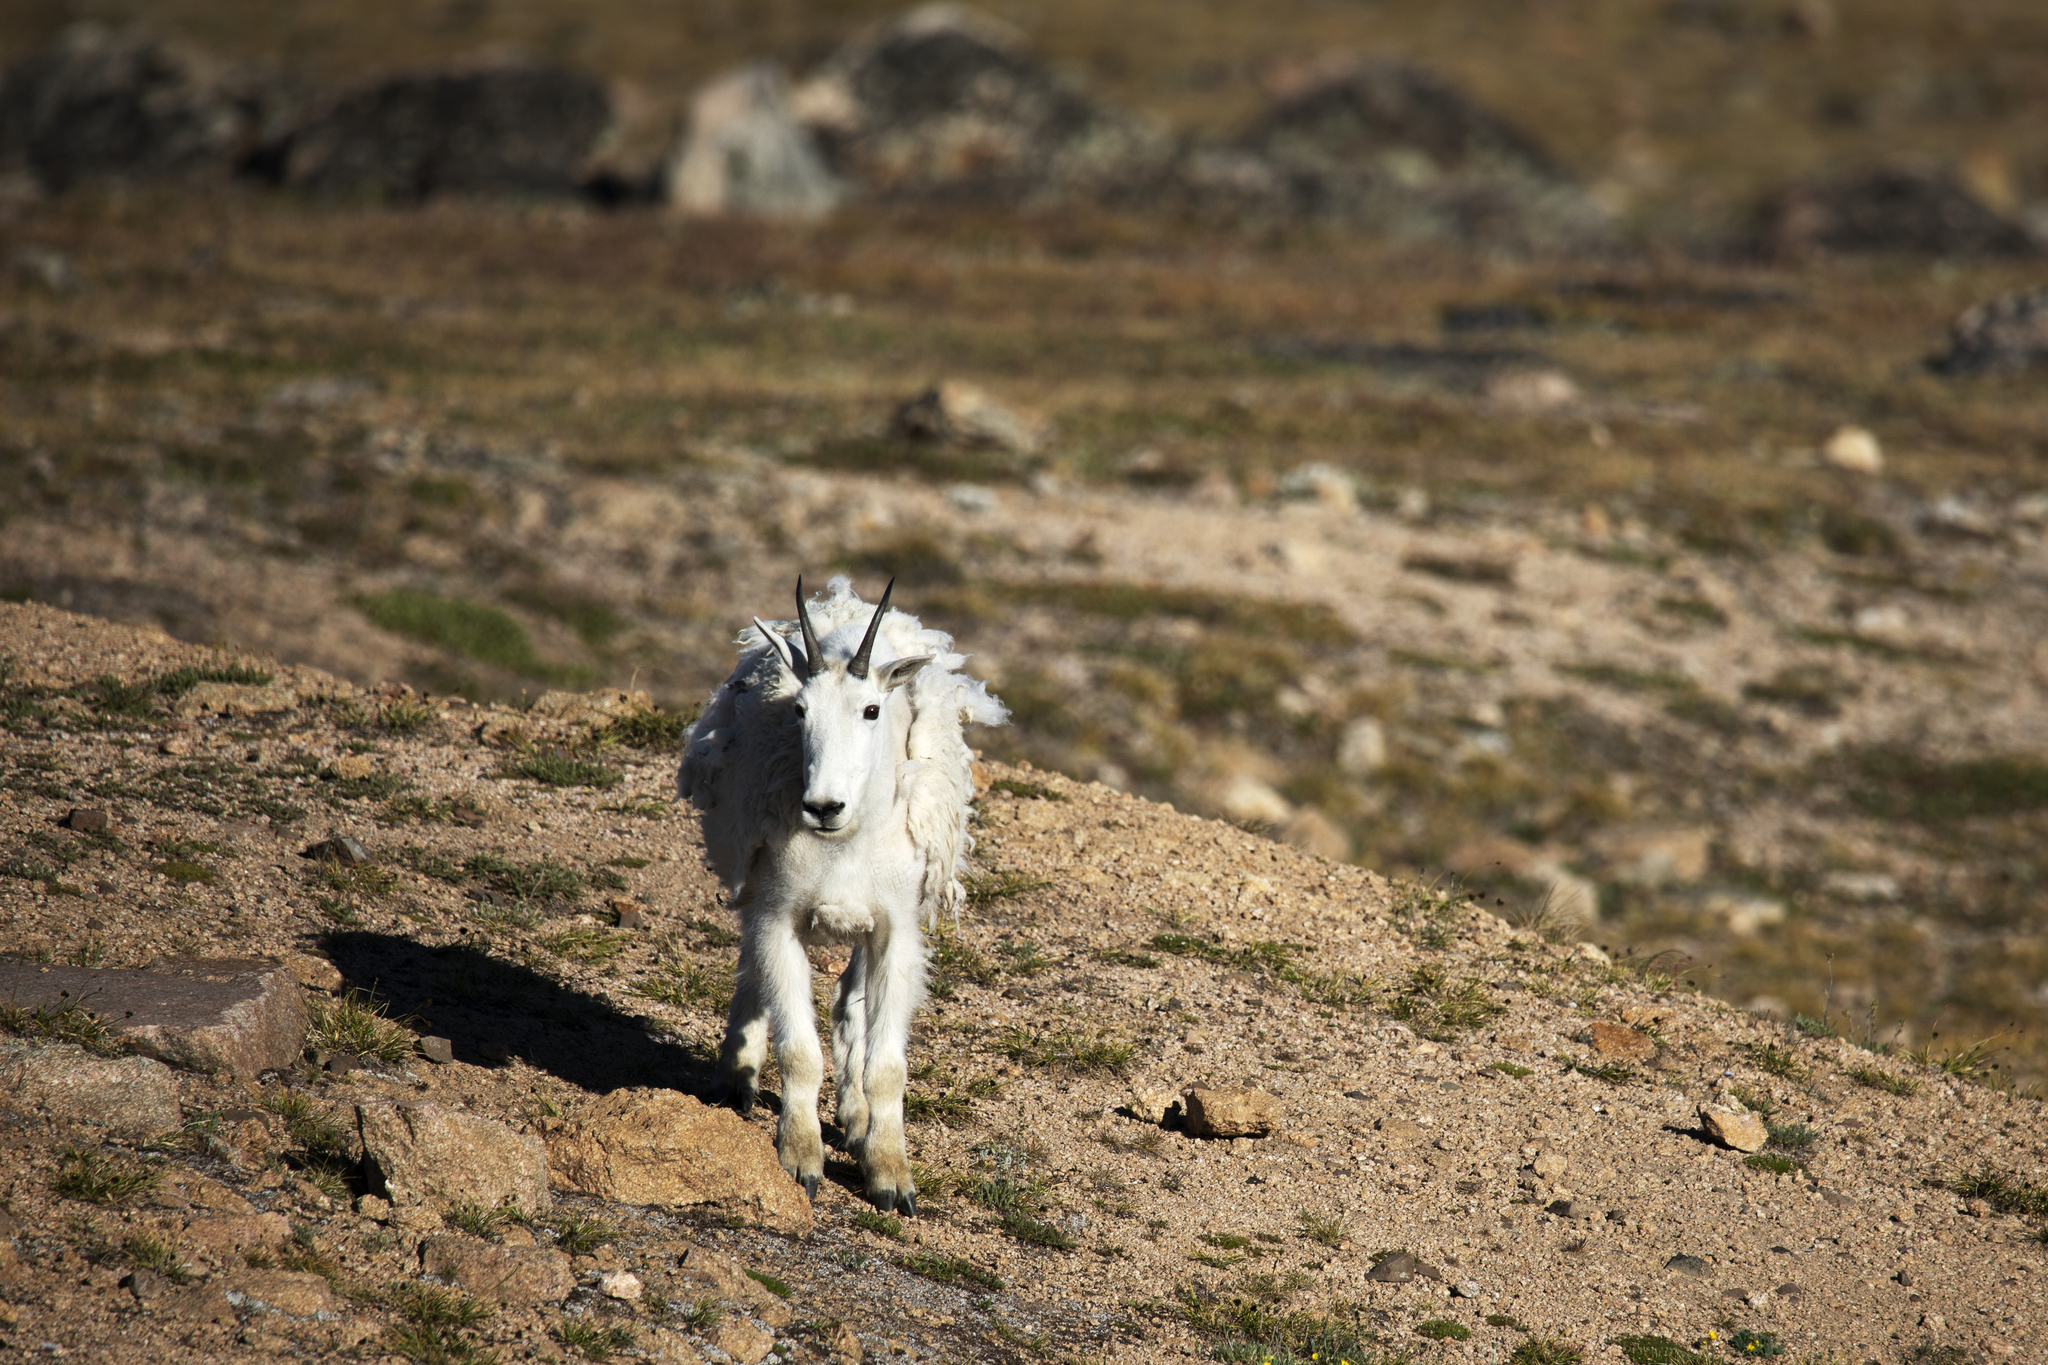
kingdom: Animalia
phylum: Chordata
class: Mammalia
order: Artiodactyla
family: Bovidae
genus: Oreamnos
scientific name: Oreamnos americanus
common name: Mountain goat
